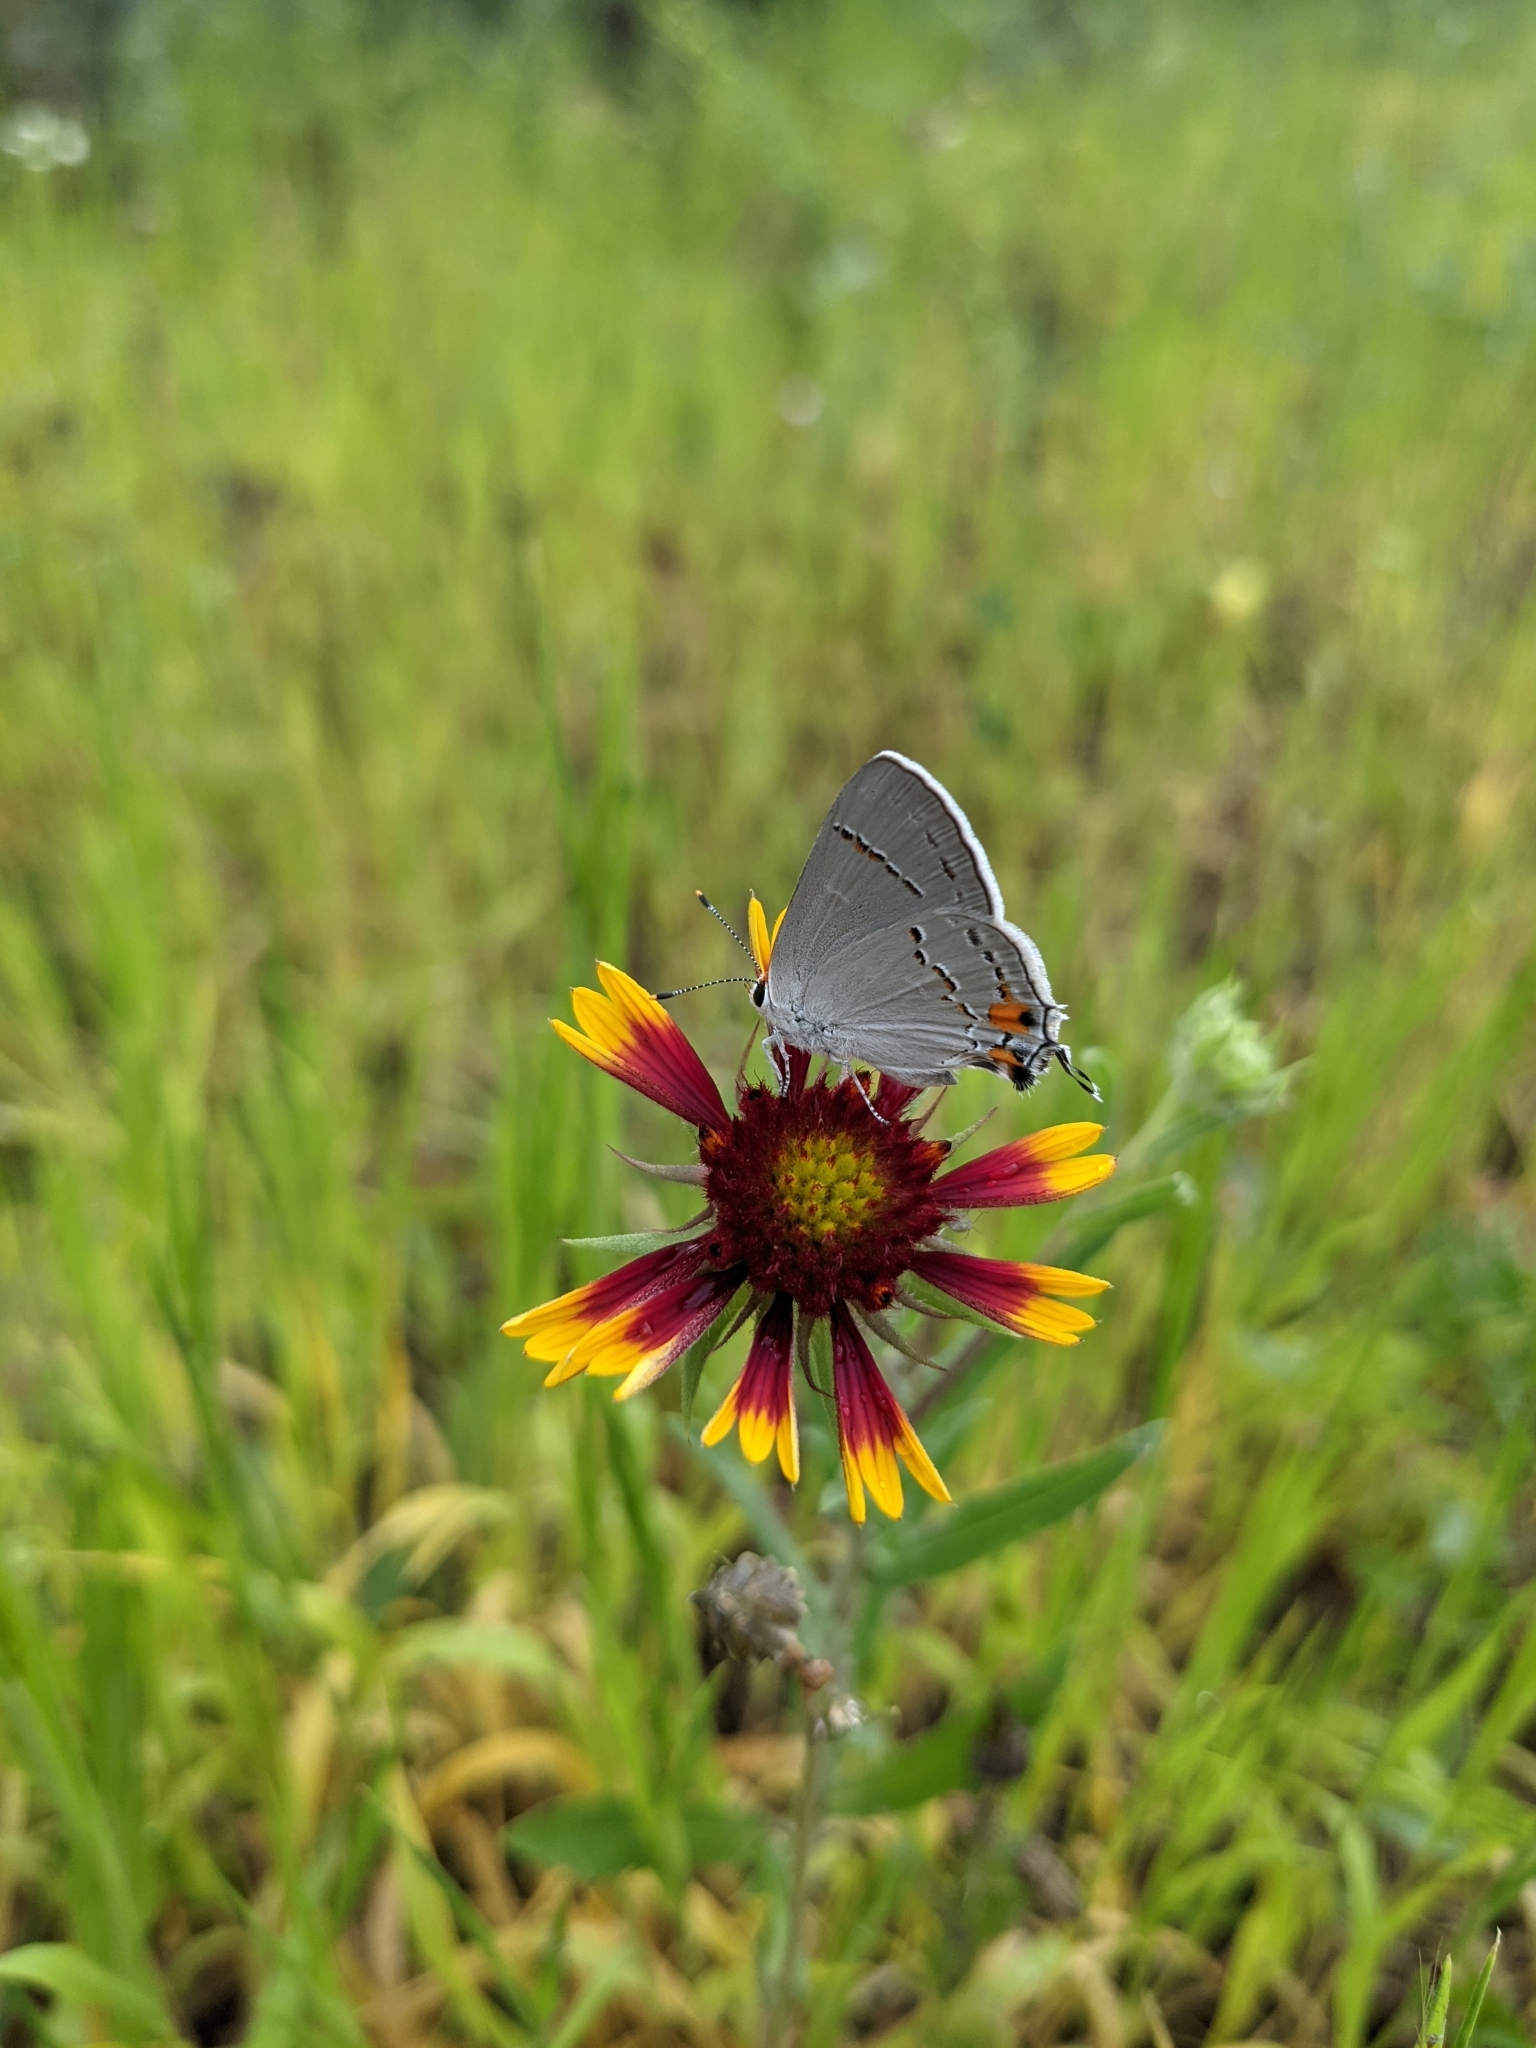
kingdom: Animalia
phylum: Arthropoda
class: Insecta
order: Lepidoptera
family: Lycaenidae
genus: Strymon
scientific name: Strymon melinus
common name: Gray hairstreak
